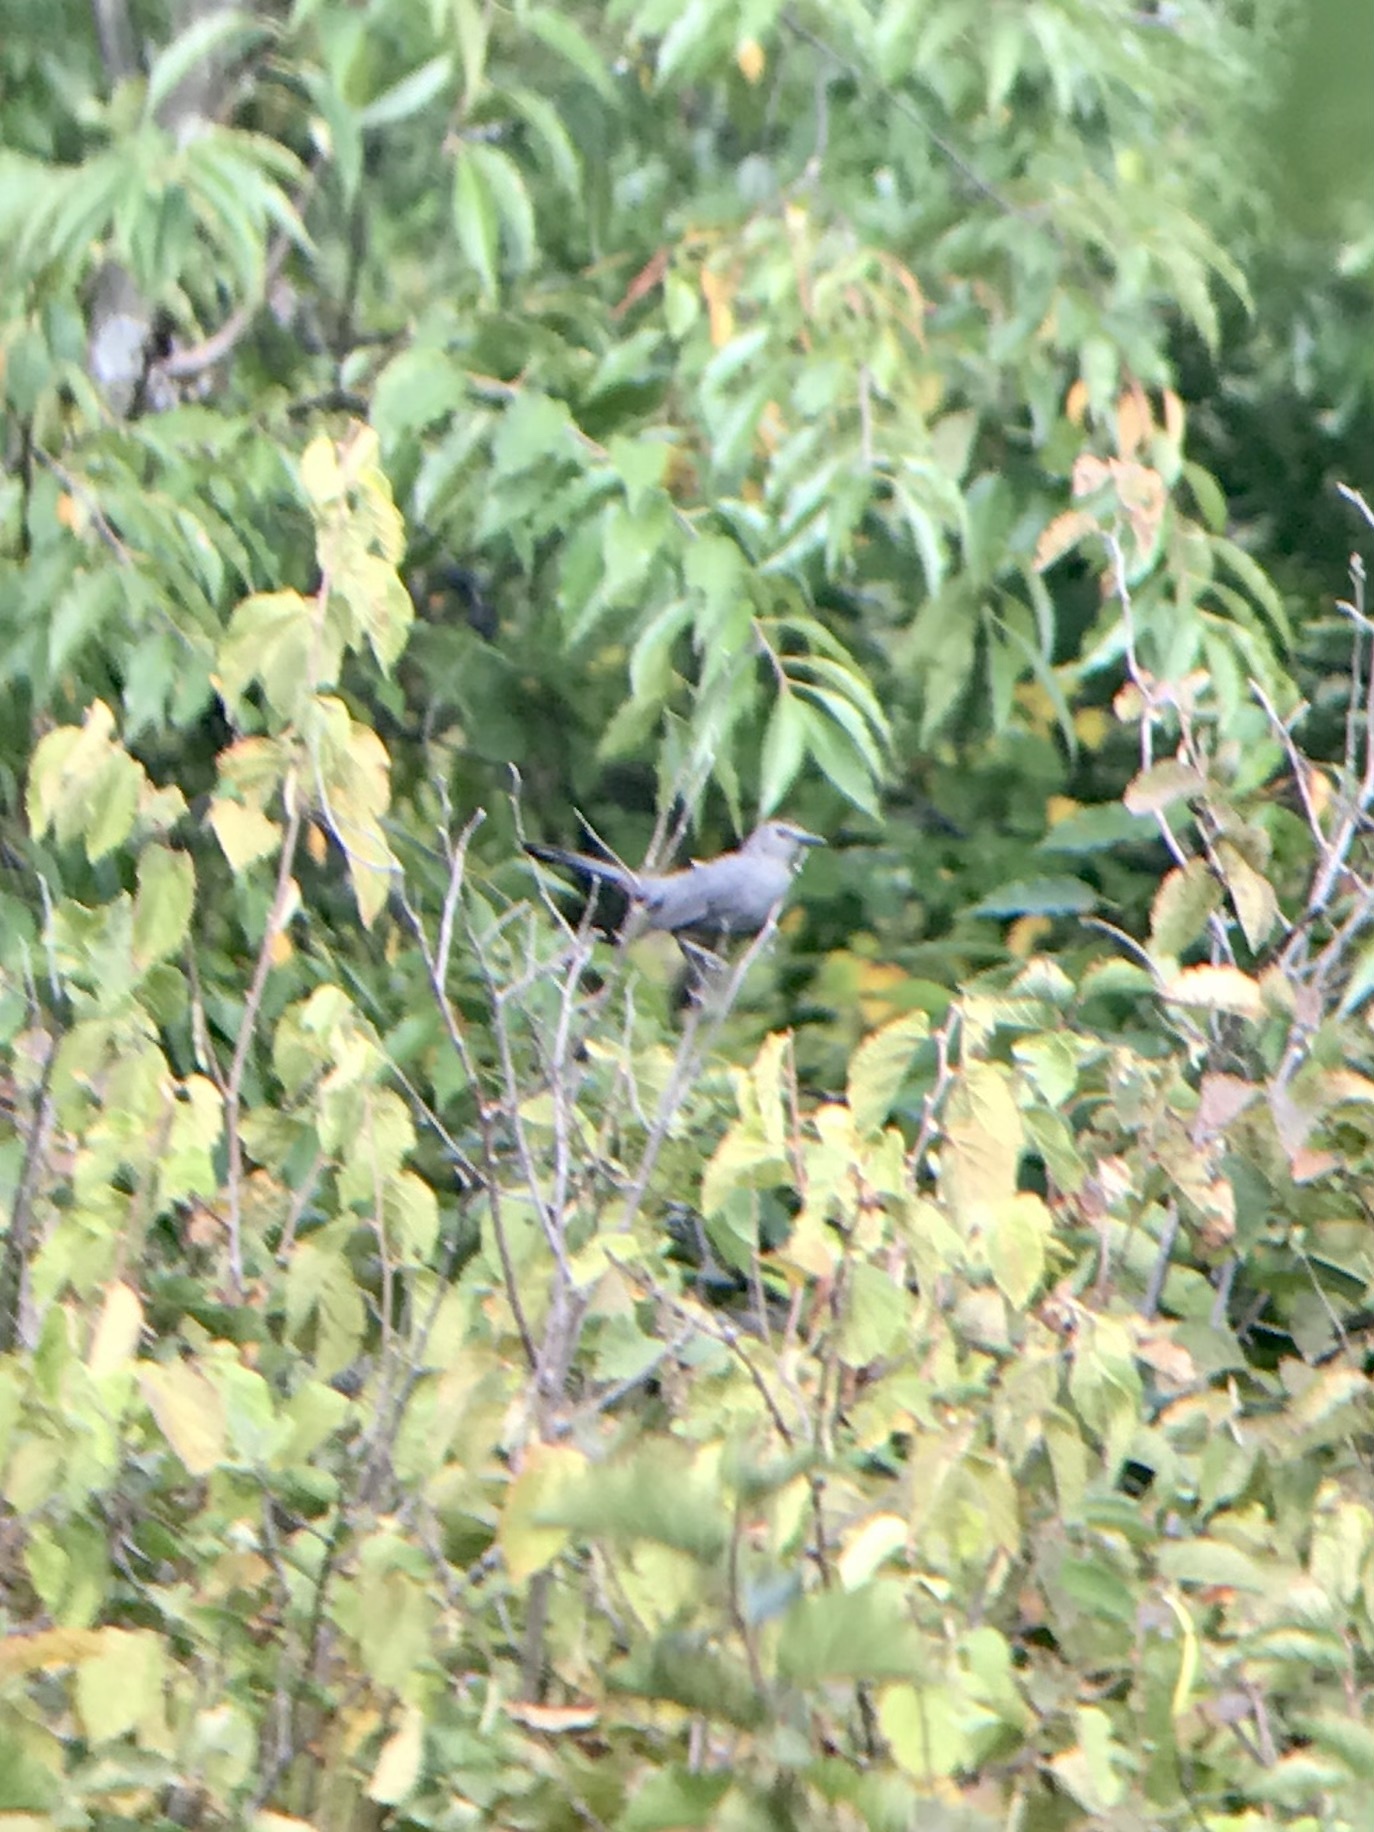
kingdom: Animalia
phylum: Chordata
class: Aves
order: Passeriformes
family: Mimidae
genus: Dumetella
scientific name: Dumetella carolinensis
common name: Gray catbird
